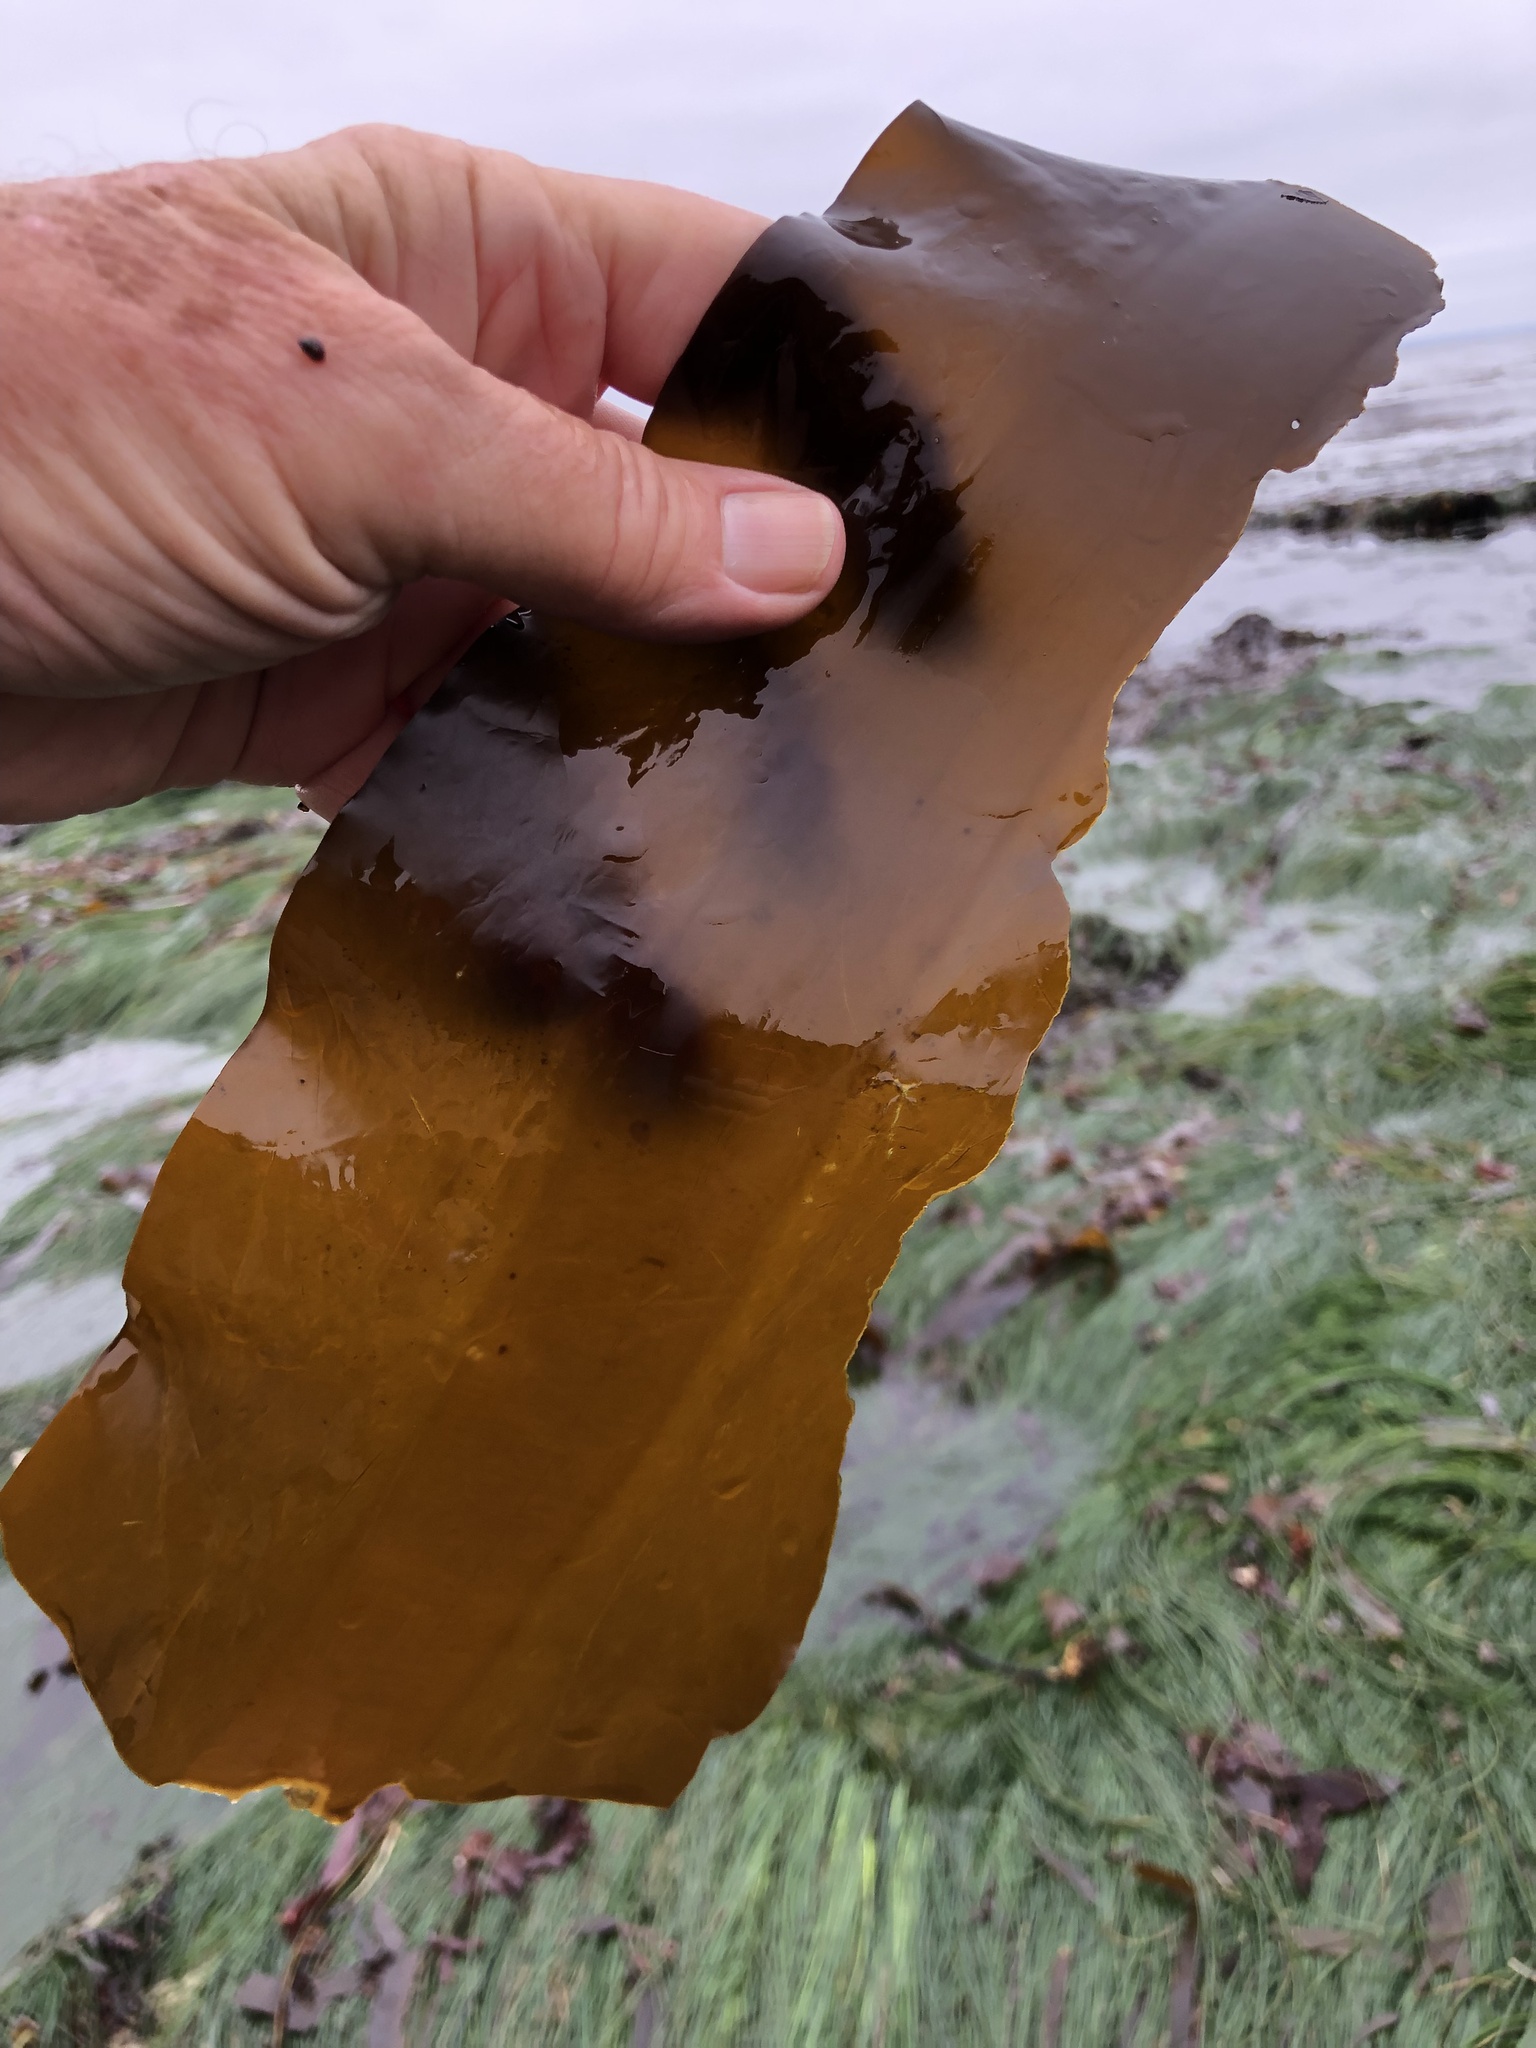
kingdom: Chromista
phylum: Ochrophyta
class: Phaeophyceae
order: Laminariales
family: Alariaceae
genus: Pterygophora
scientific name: Pterygophora californica
